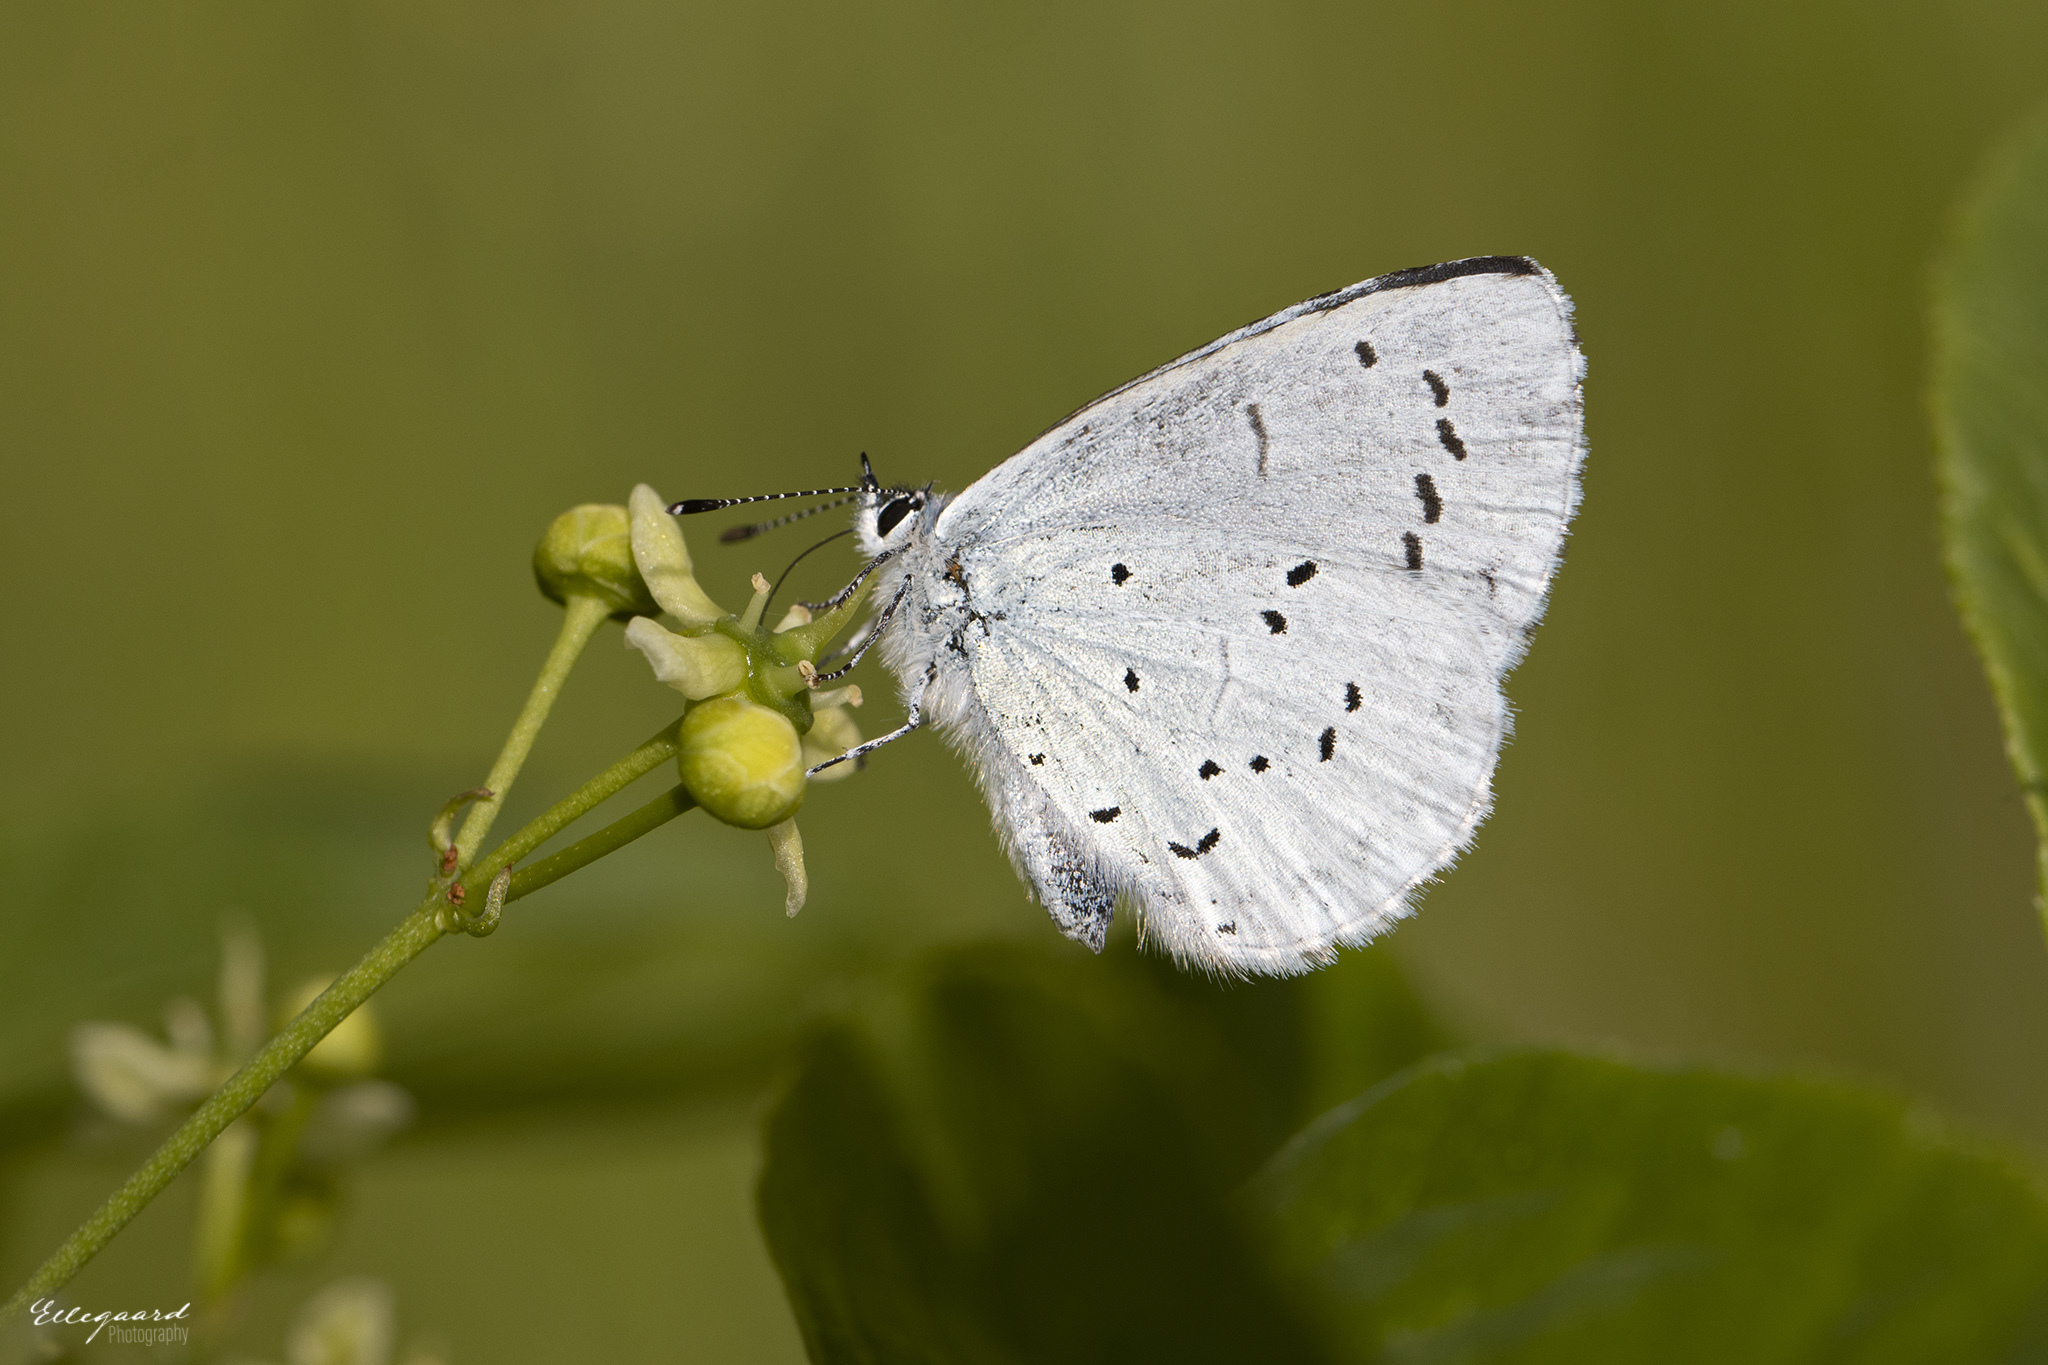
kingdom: Animalia
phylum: Arthropoda
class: Insecta
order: Lepidoptera
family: Lycaenidae
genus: Celastrina
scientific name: Celastrina argiolus
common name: Holly blue
